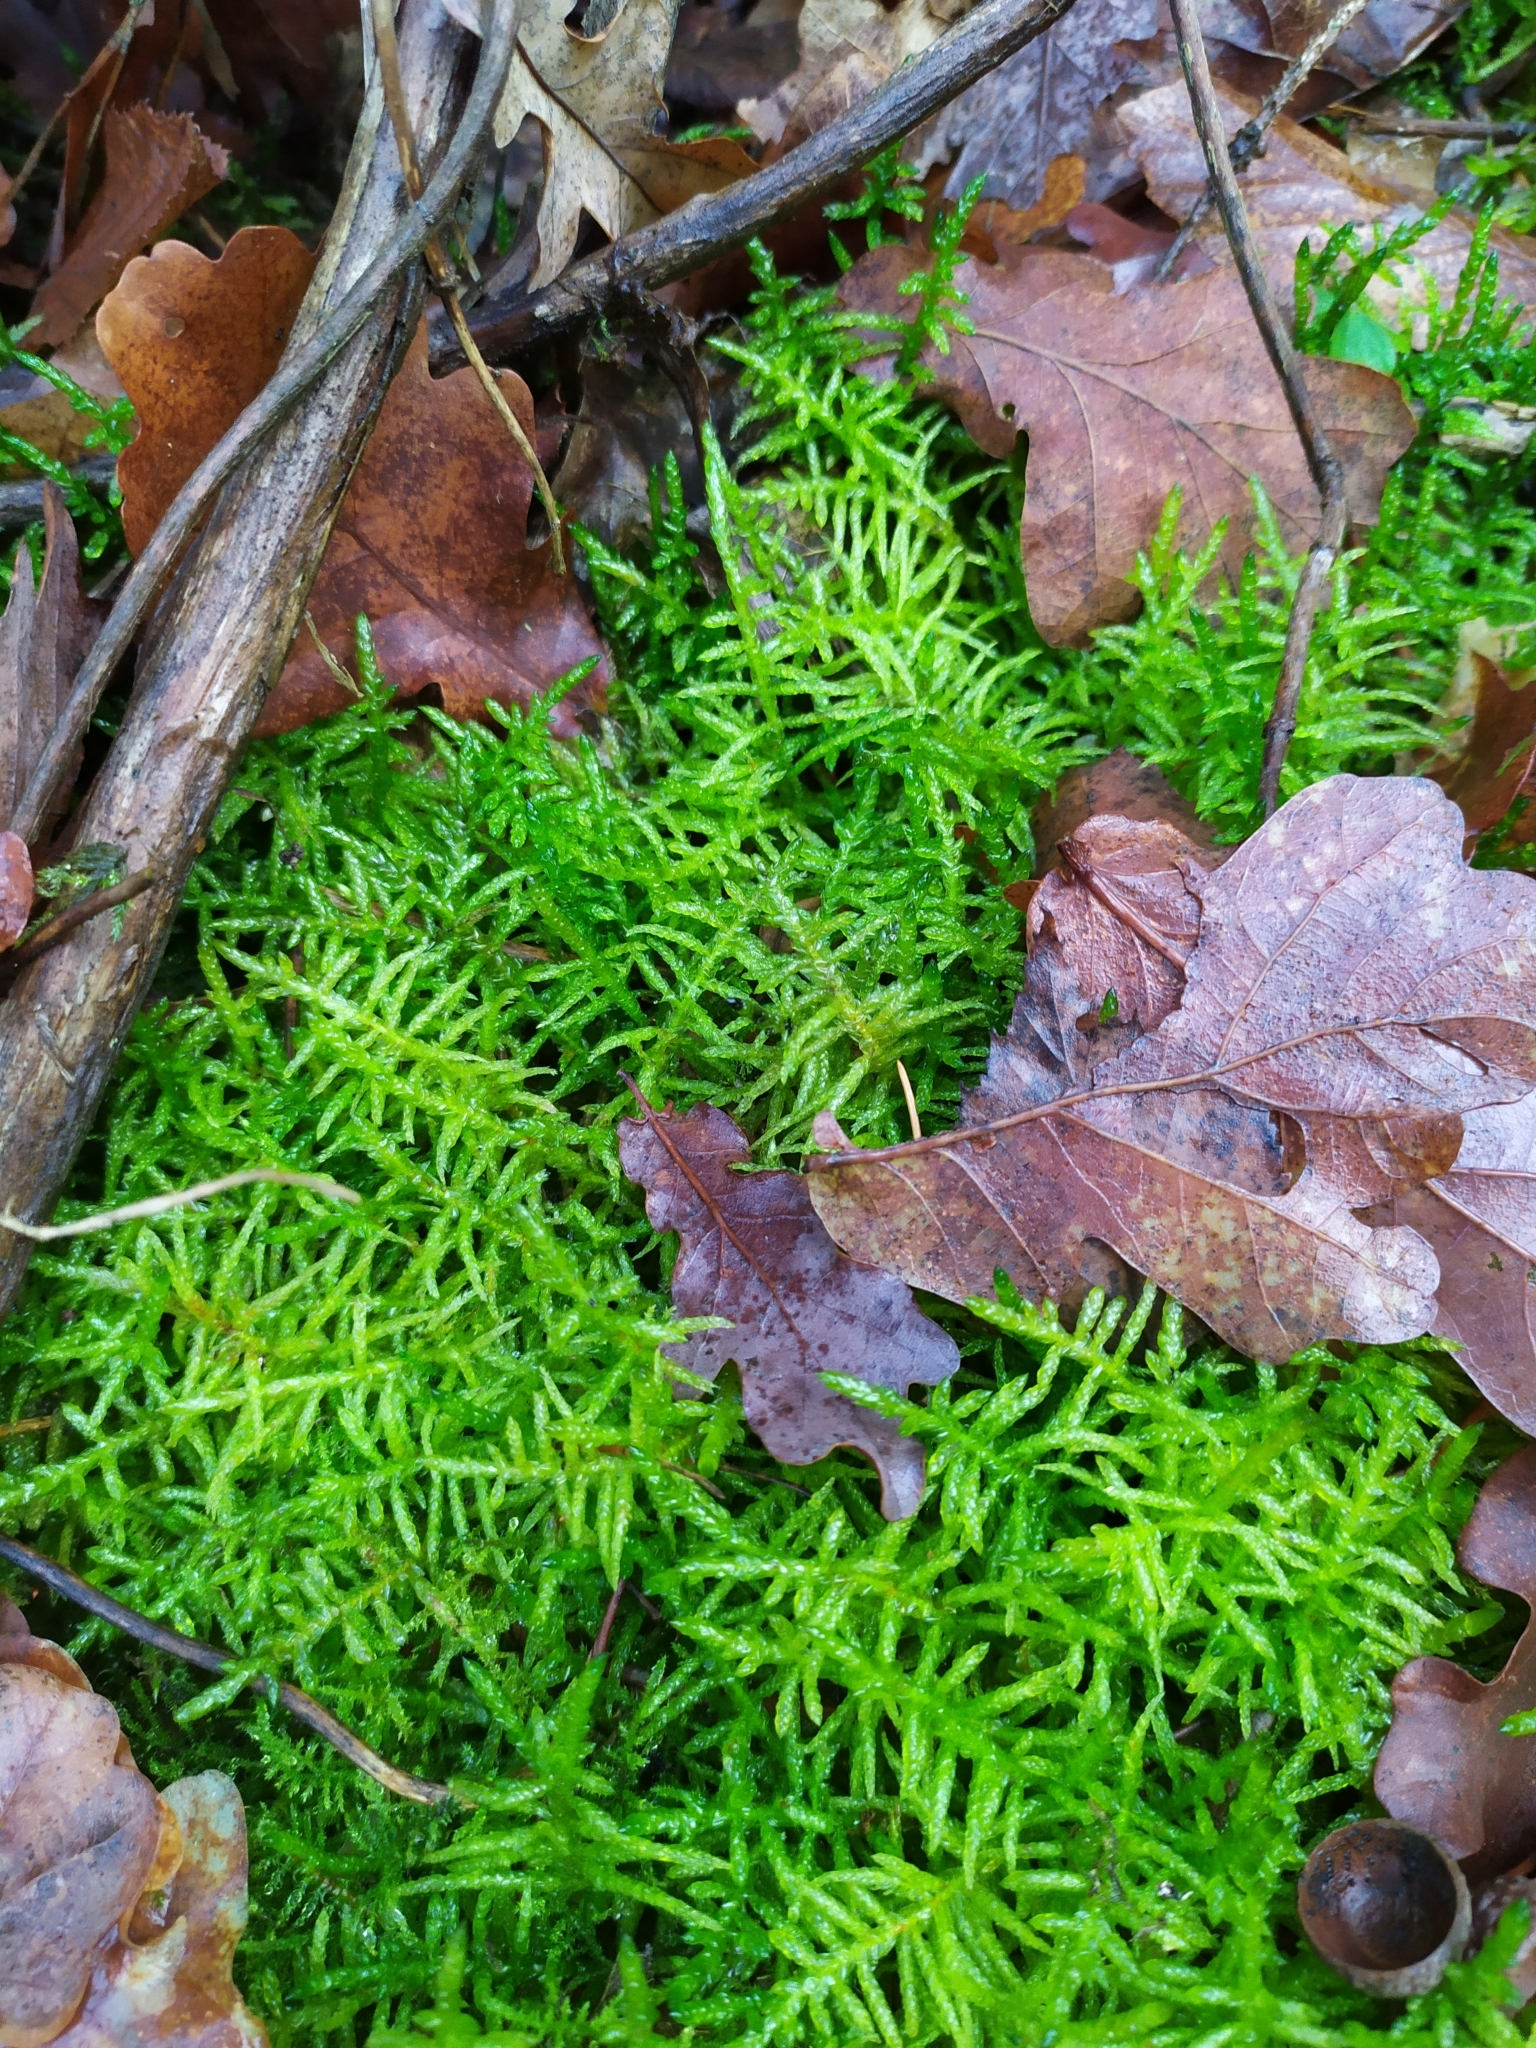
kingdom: Plantae
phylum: Bryophyta
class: Bryopsida
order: Hypnales
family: Brachytheciaceae
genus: Pseudoscleropodium
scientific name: Pseudoscleropodium purum
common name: Neat feather-moss
